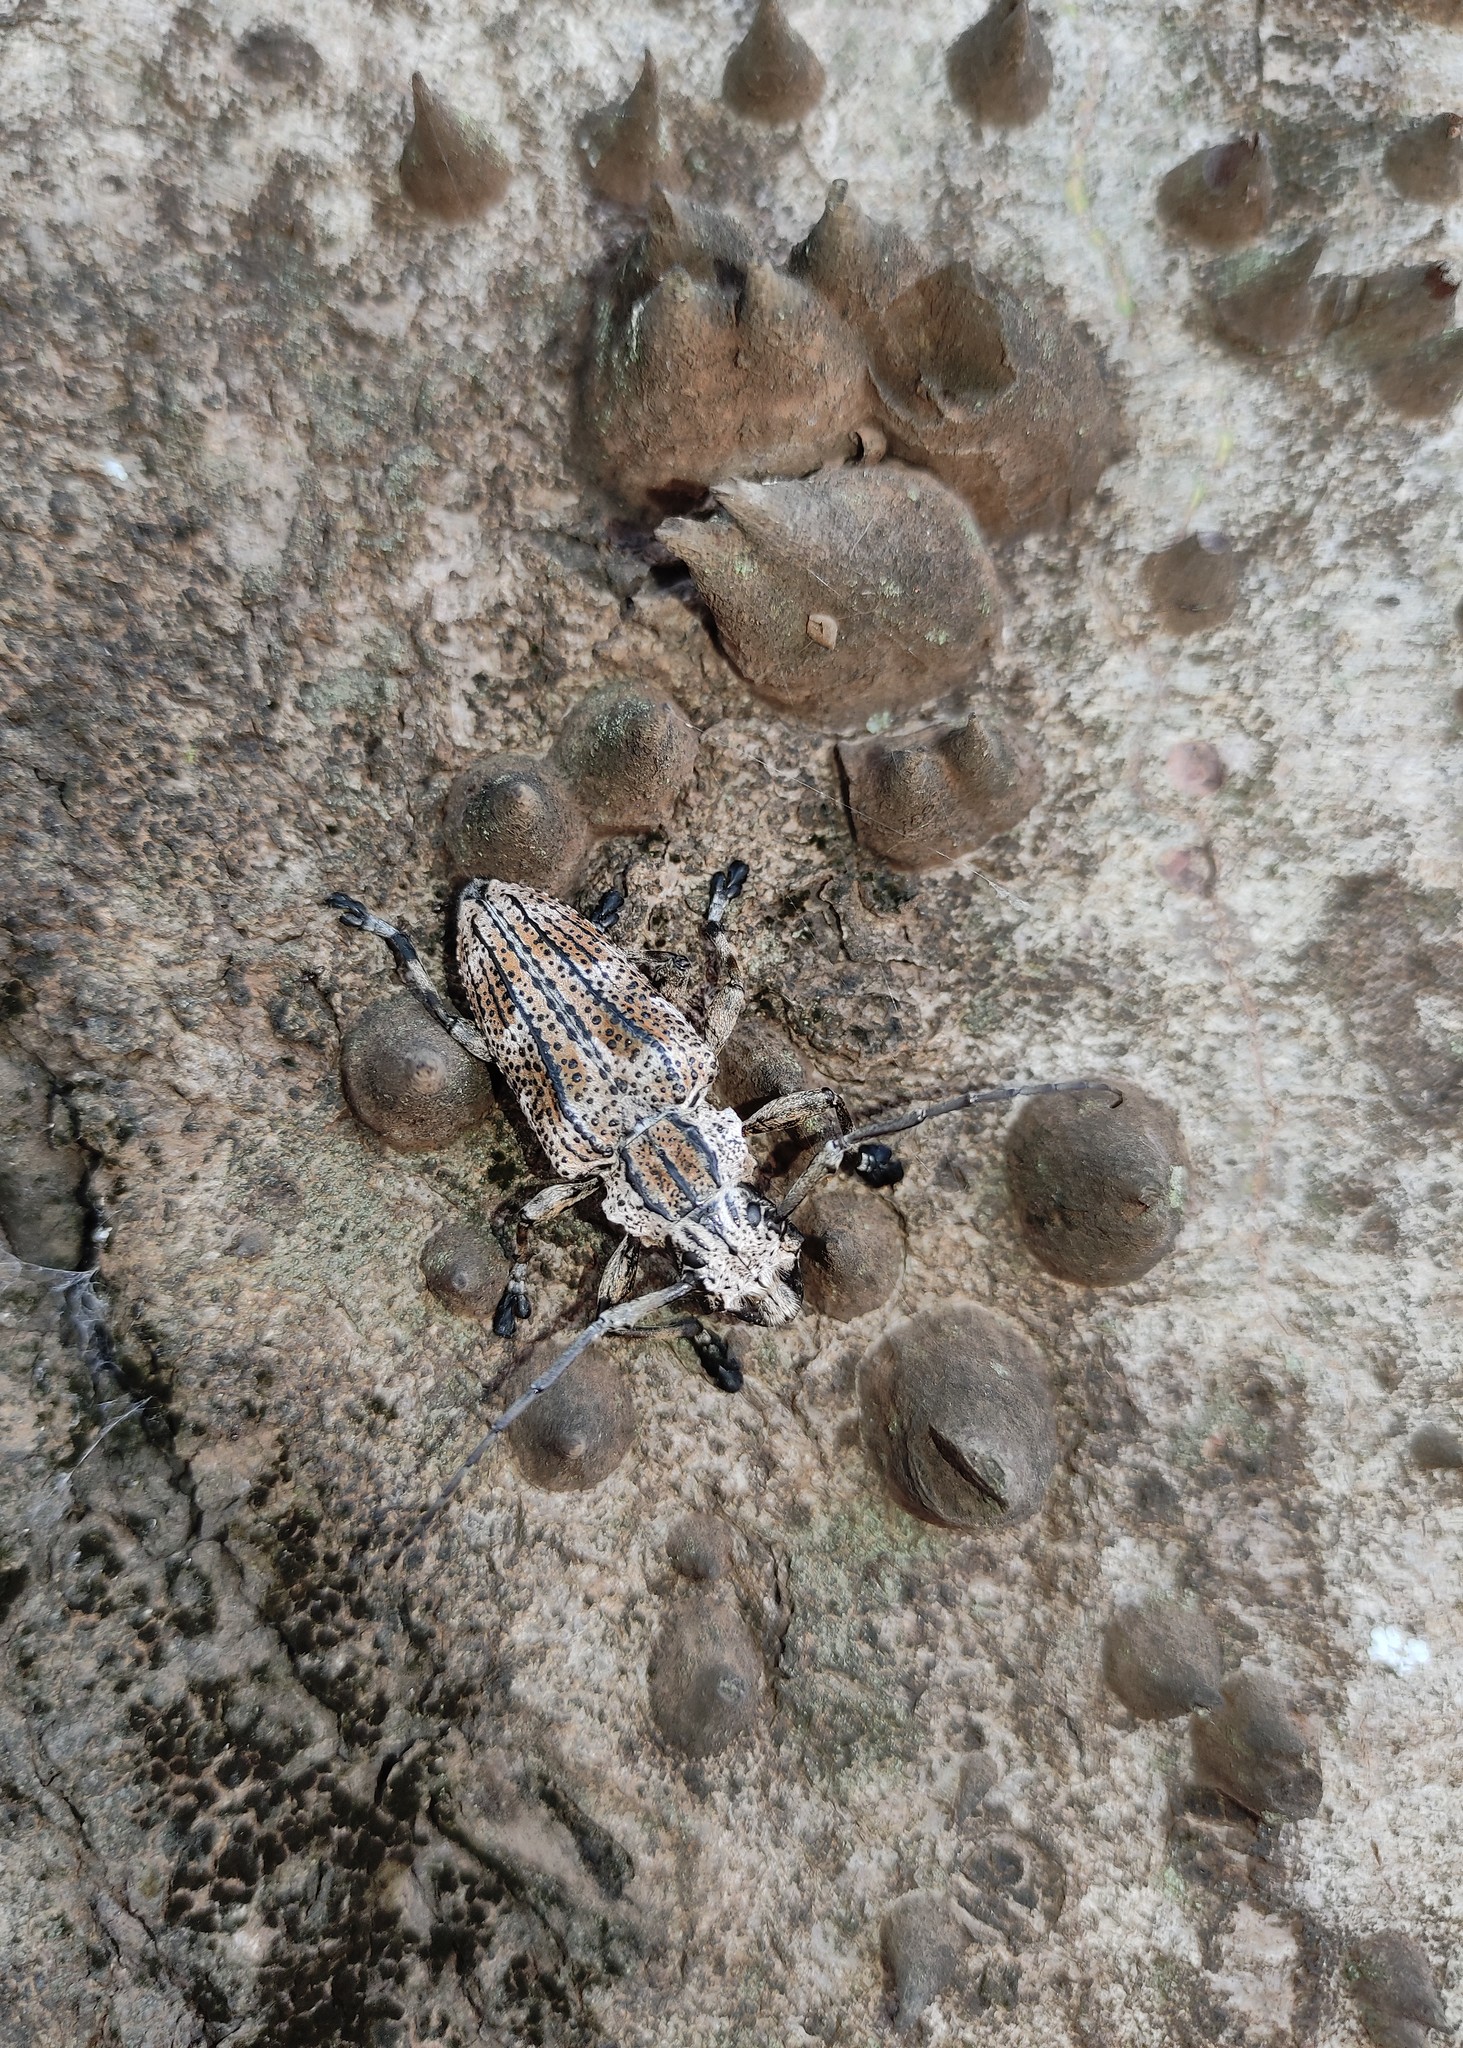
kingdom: Animalia
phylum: Arthropoda
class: Insecta
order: Coleoptera
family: Cerambycidae
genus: Steirastoma
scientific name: Steirastoma meridionale
